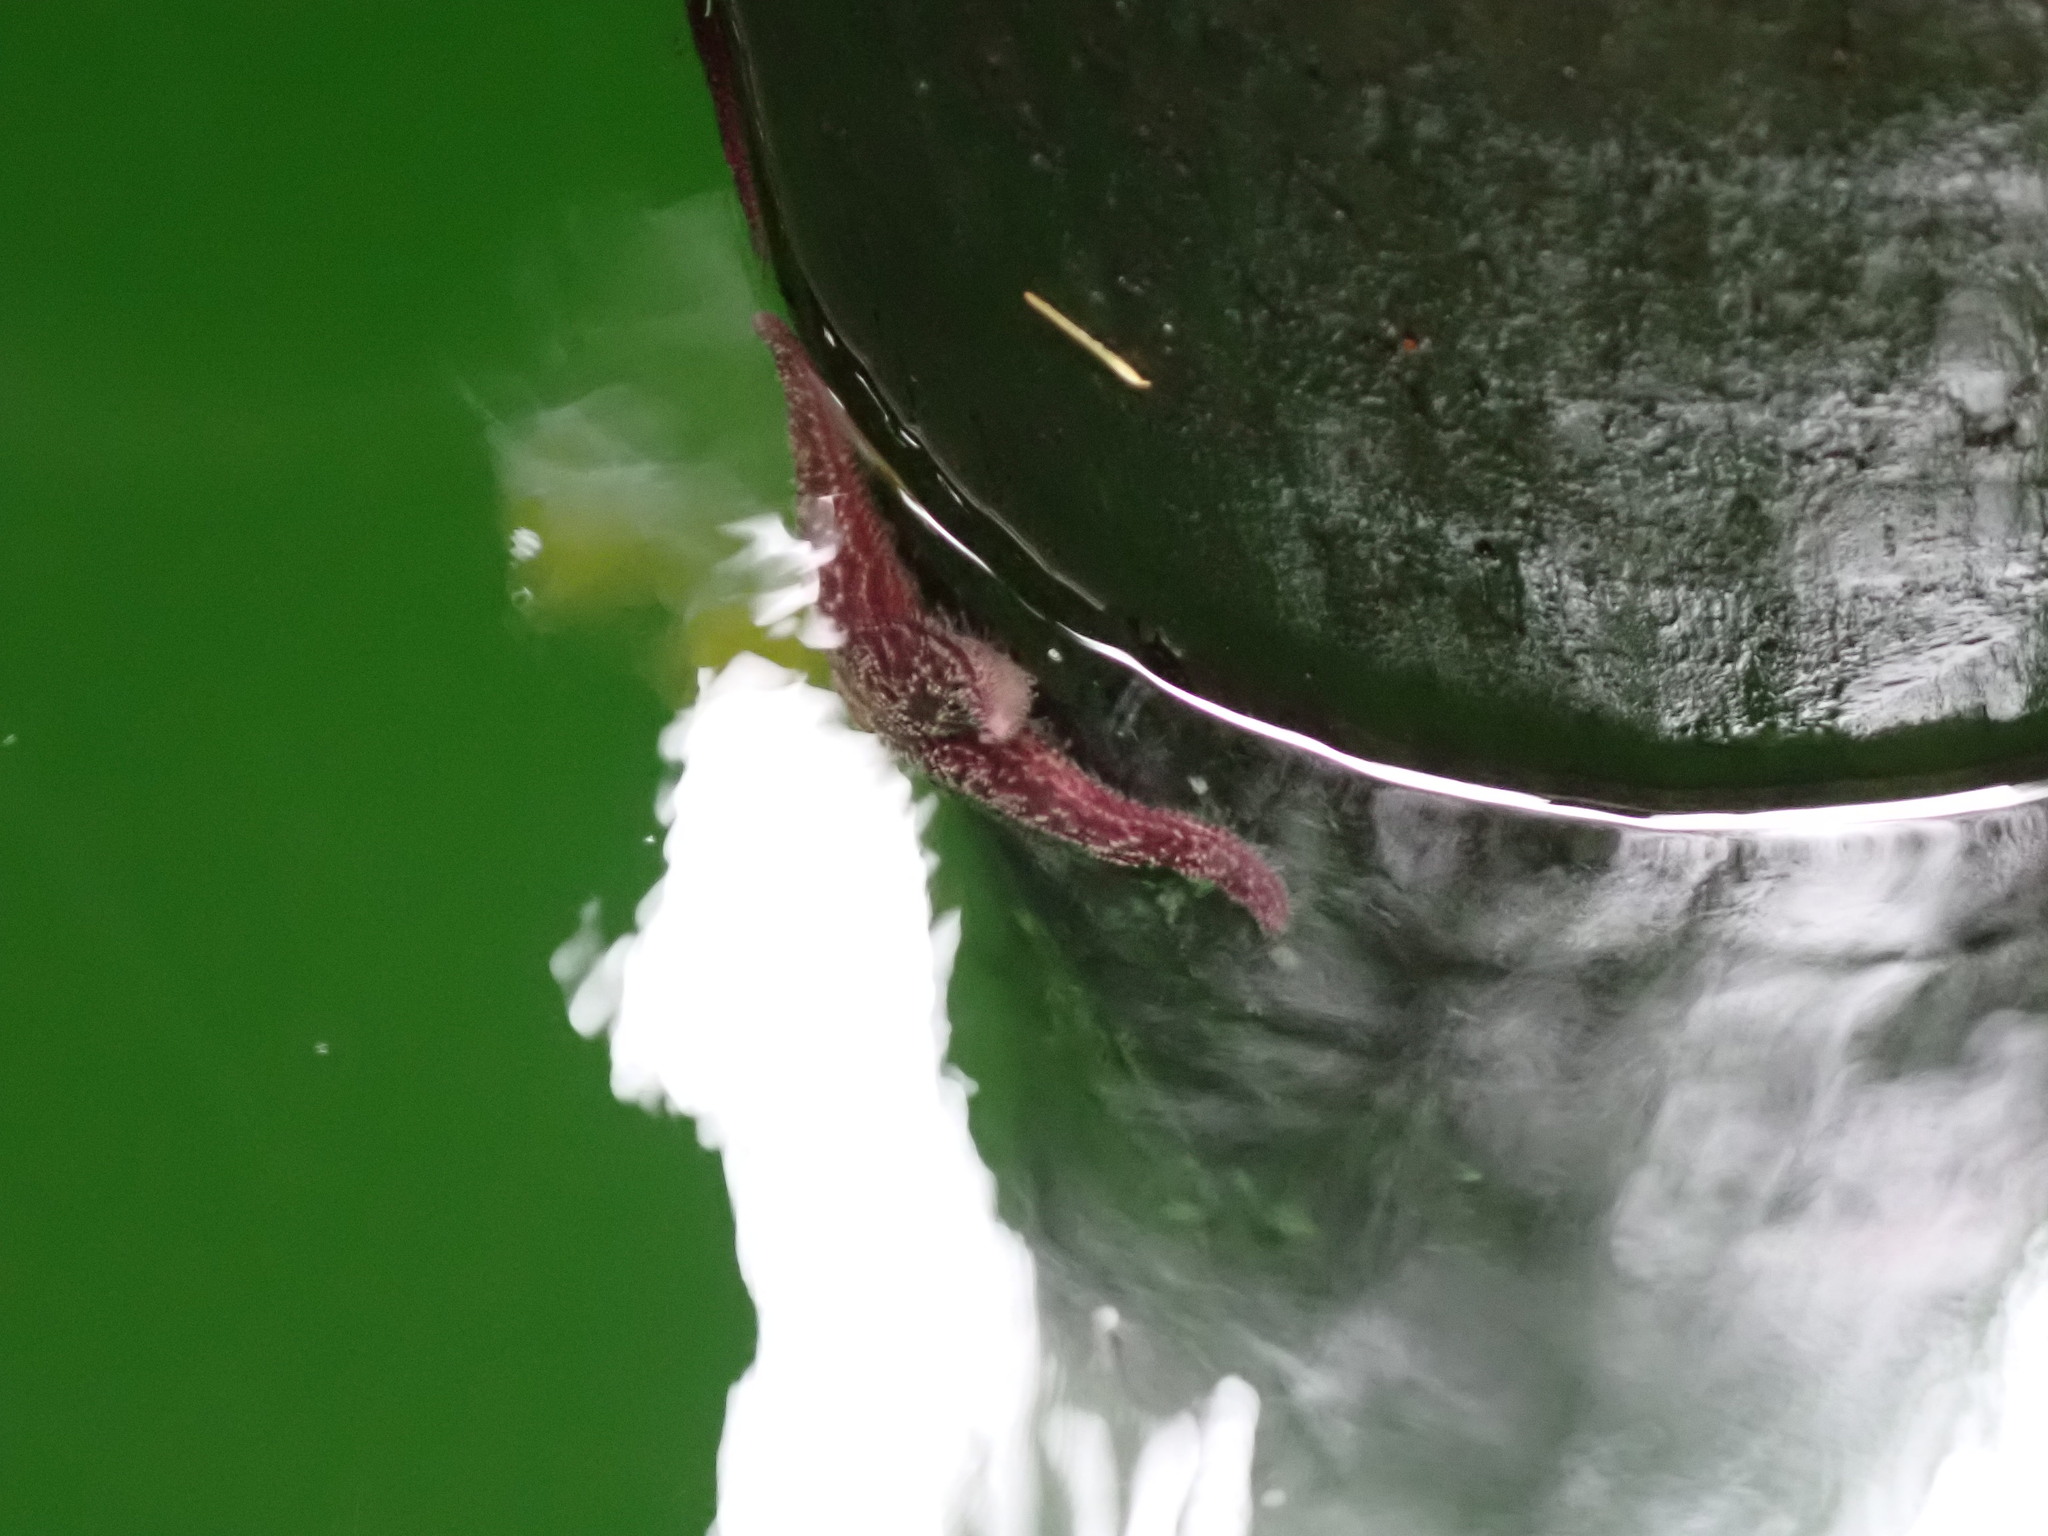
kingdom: Animalia
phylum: Echinodermata
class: Asteroidea
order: Forcipulatida
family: Asteriidae
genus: Pisaster
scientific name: Pisaster ochraceus
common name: Ochre stars
